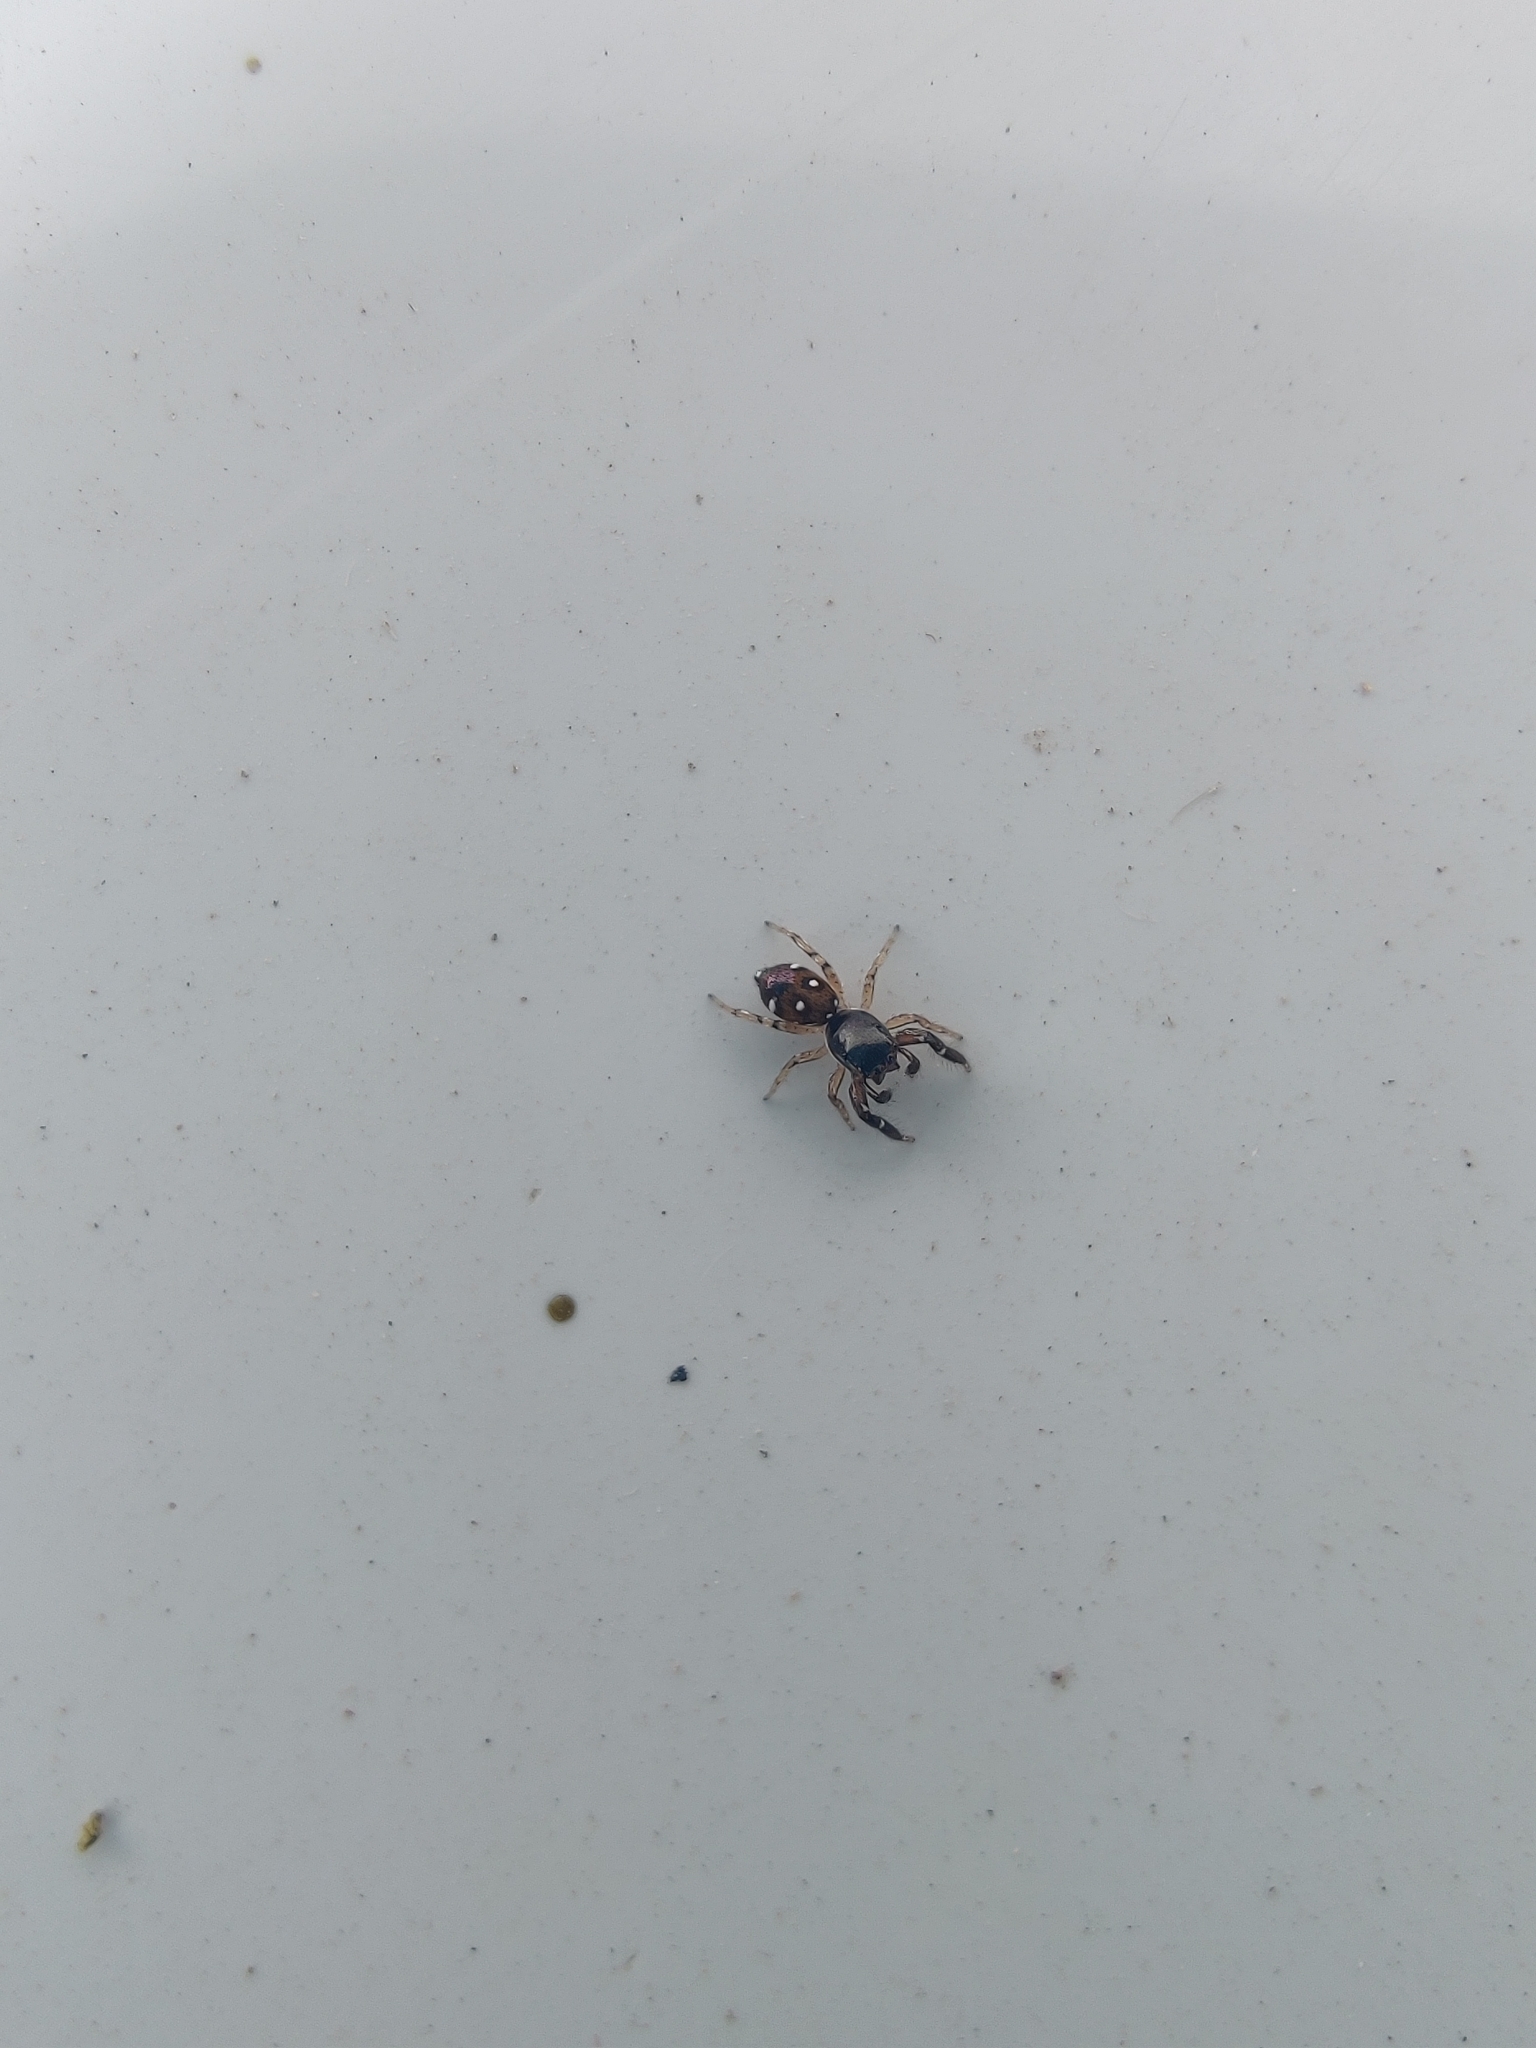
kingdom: Animalia
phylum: Arthropoda
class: Arachnida
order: Araneae
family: Salticidae
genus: Icius
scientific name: Icius alboterminus
